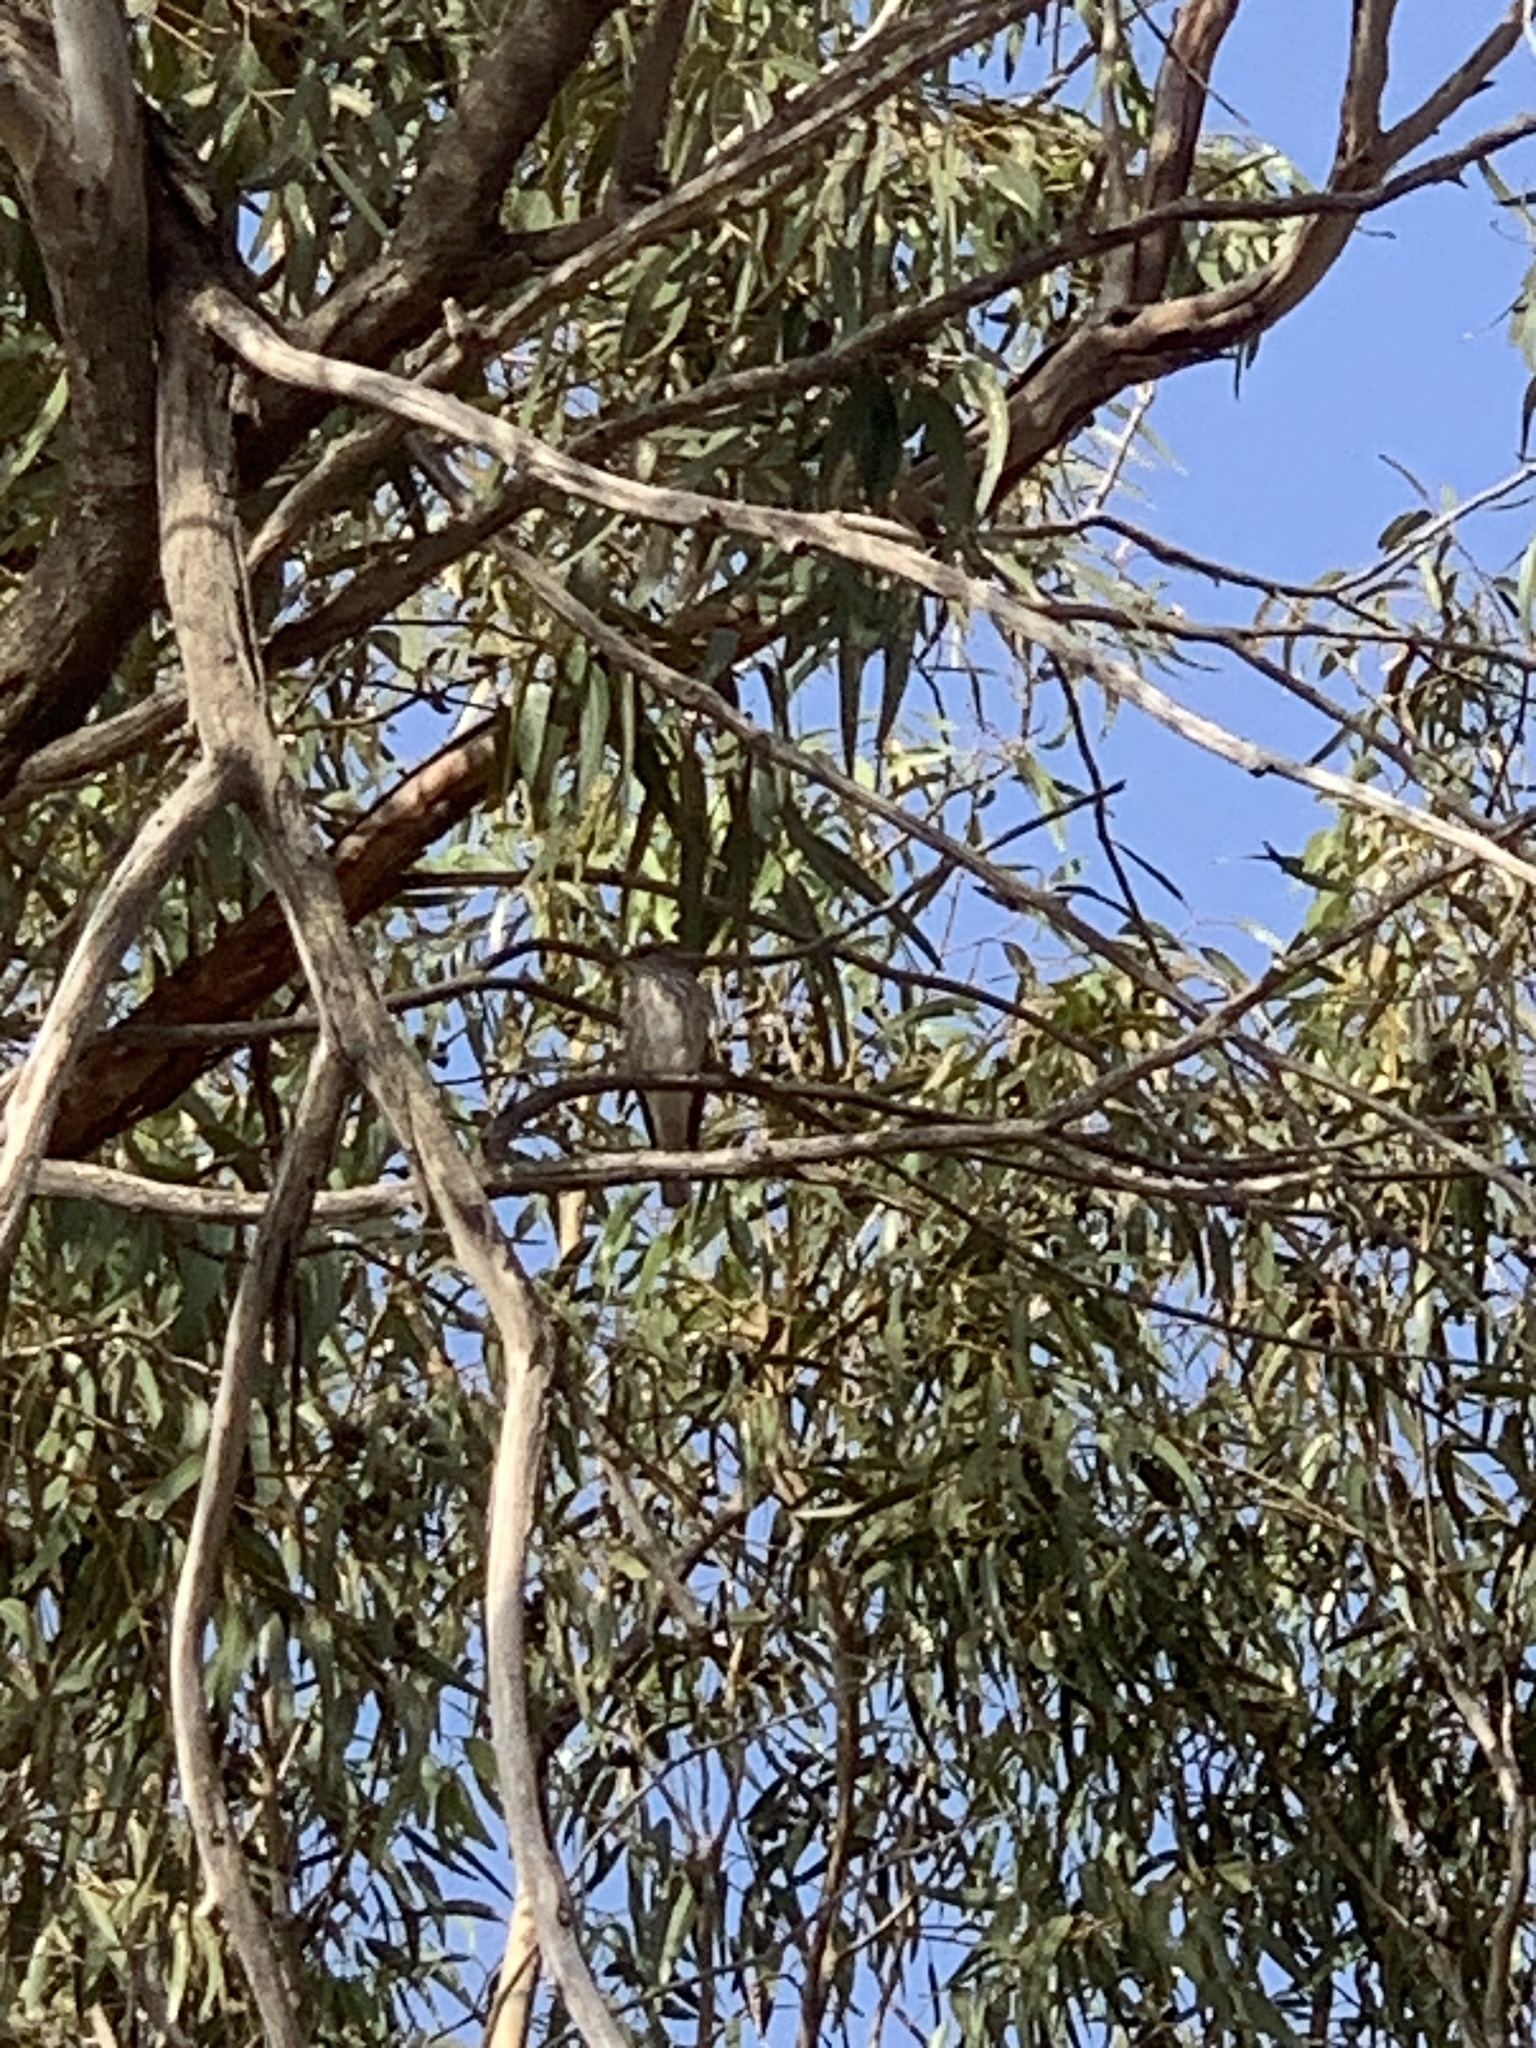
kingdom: Animalia
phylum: Chordata
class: Aves
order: Passeriformes
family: Muscicapidae
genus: Muscicapa
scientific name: Muscicapa striata
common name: Spotted flycatcher
